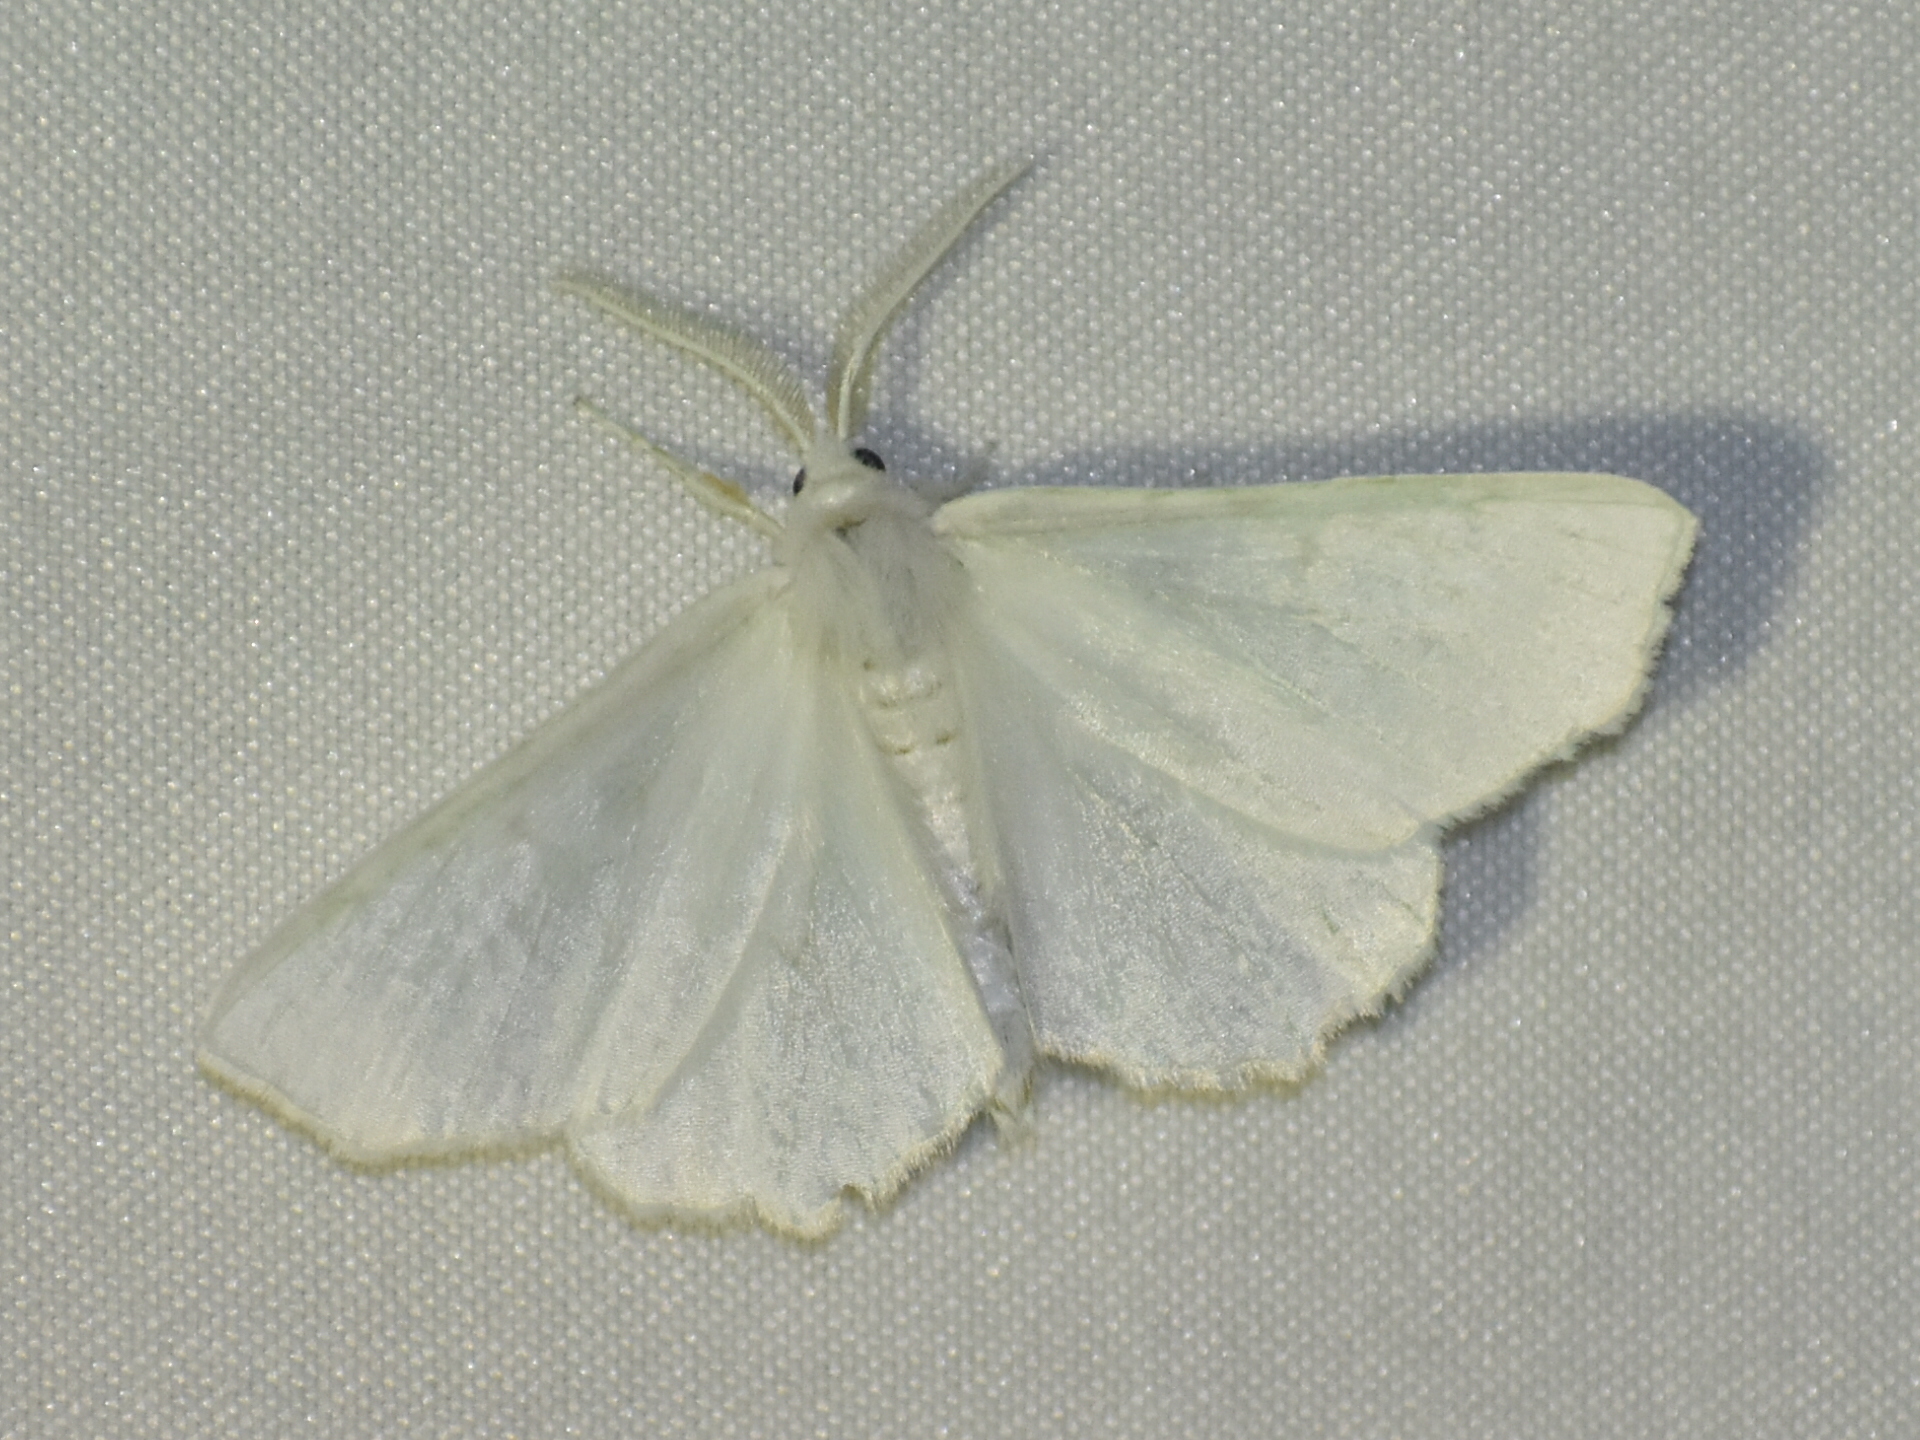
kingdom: Animalia
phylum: Arthropoda
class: Insecta
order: Lepidoptera
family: Geometridae
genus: Ennomos
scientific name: Ennomos subsignaria
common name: Elm spanworm
